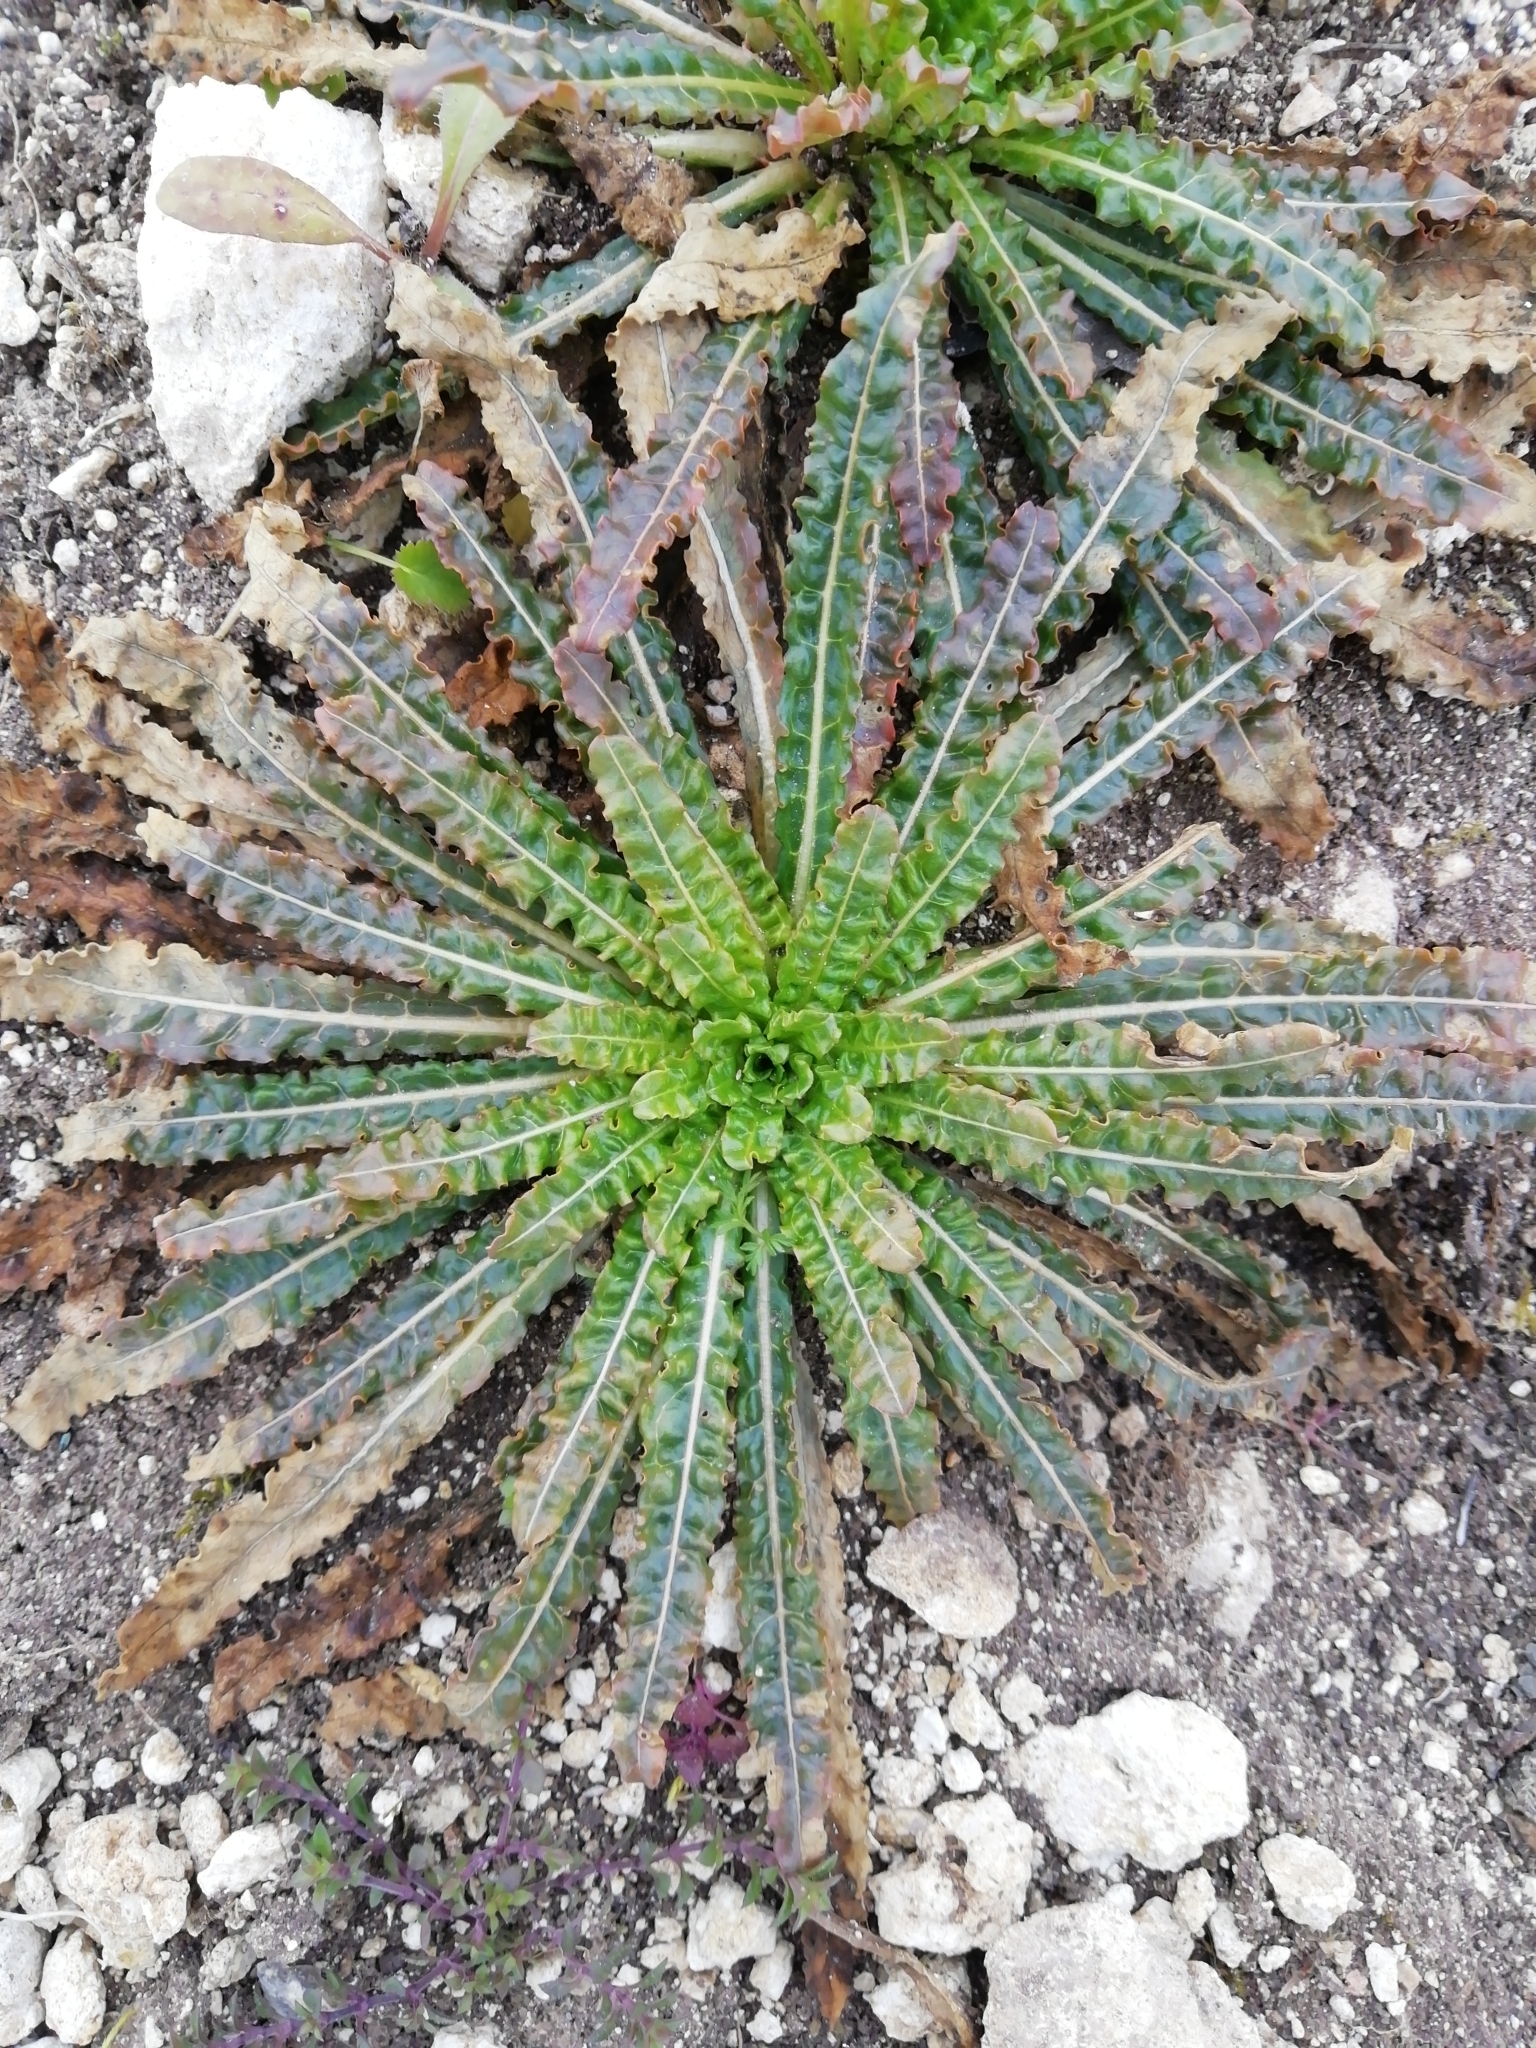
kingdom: Plantae
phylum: Tracheophyta
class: Magnoliopsida
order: Brassicales
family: Resedaceae
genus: Reseda
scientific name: Reseda luteola
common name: Weld
